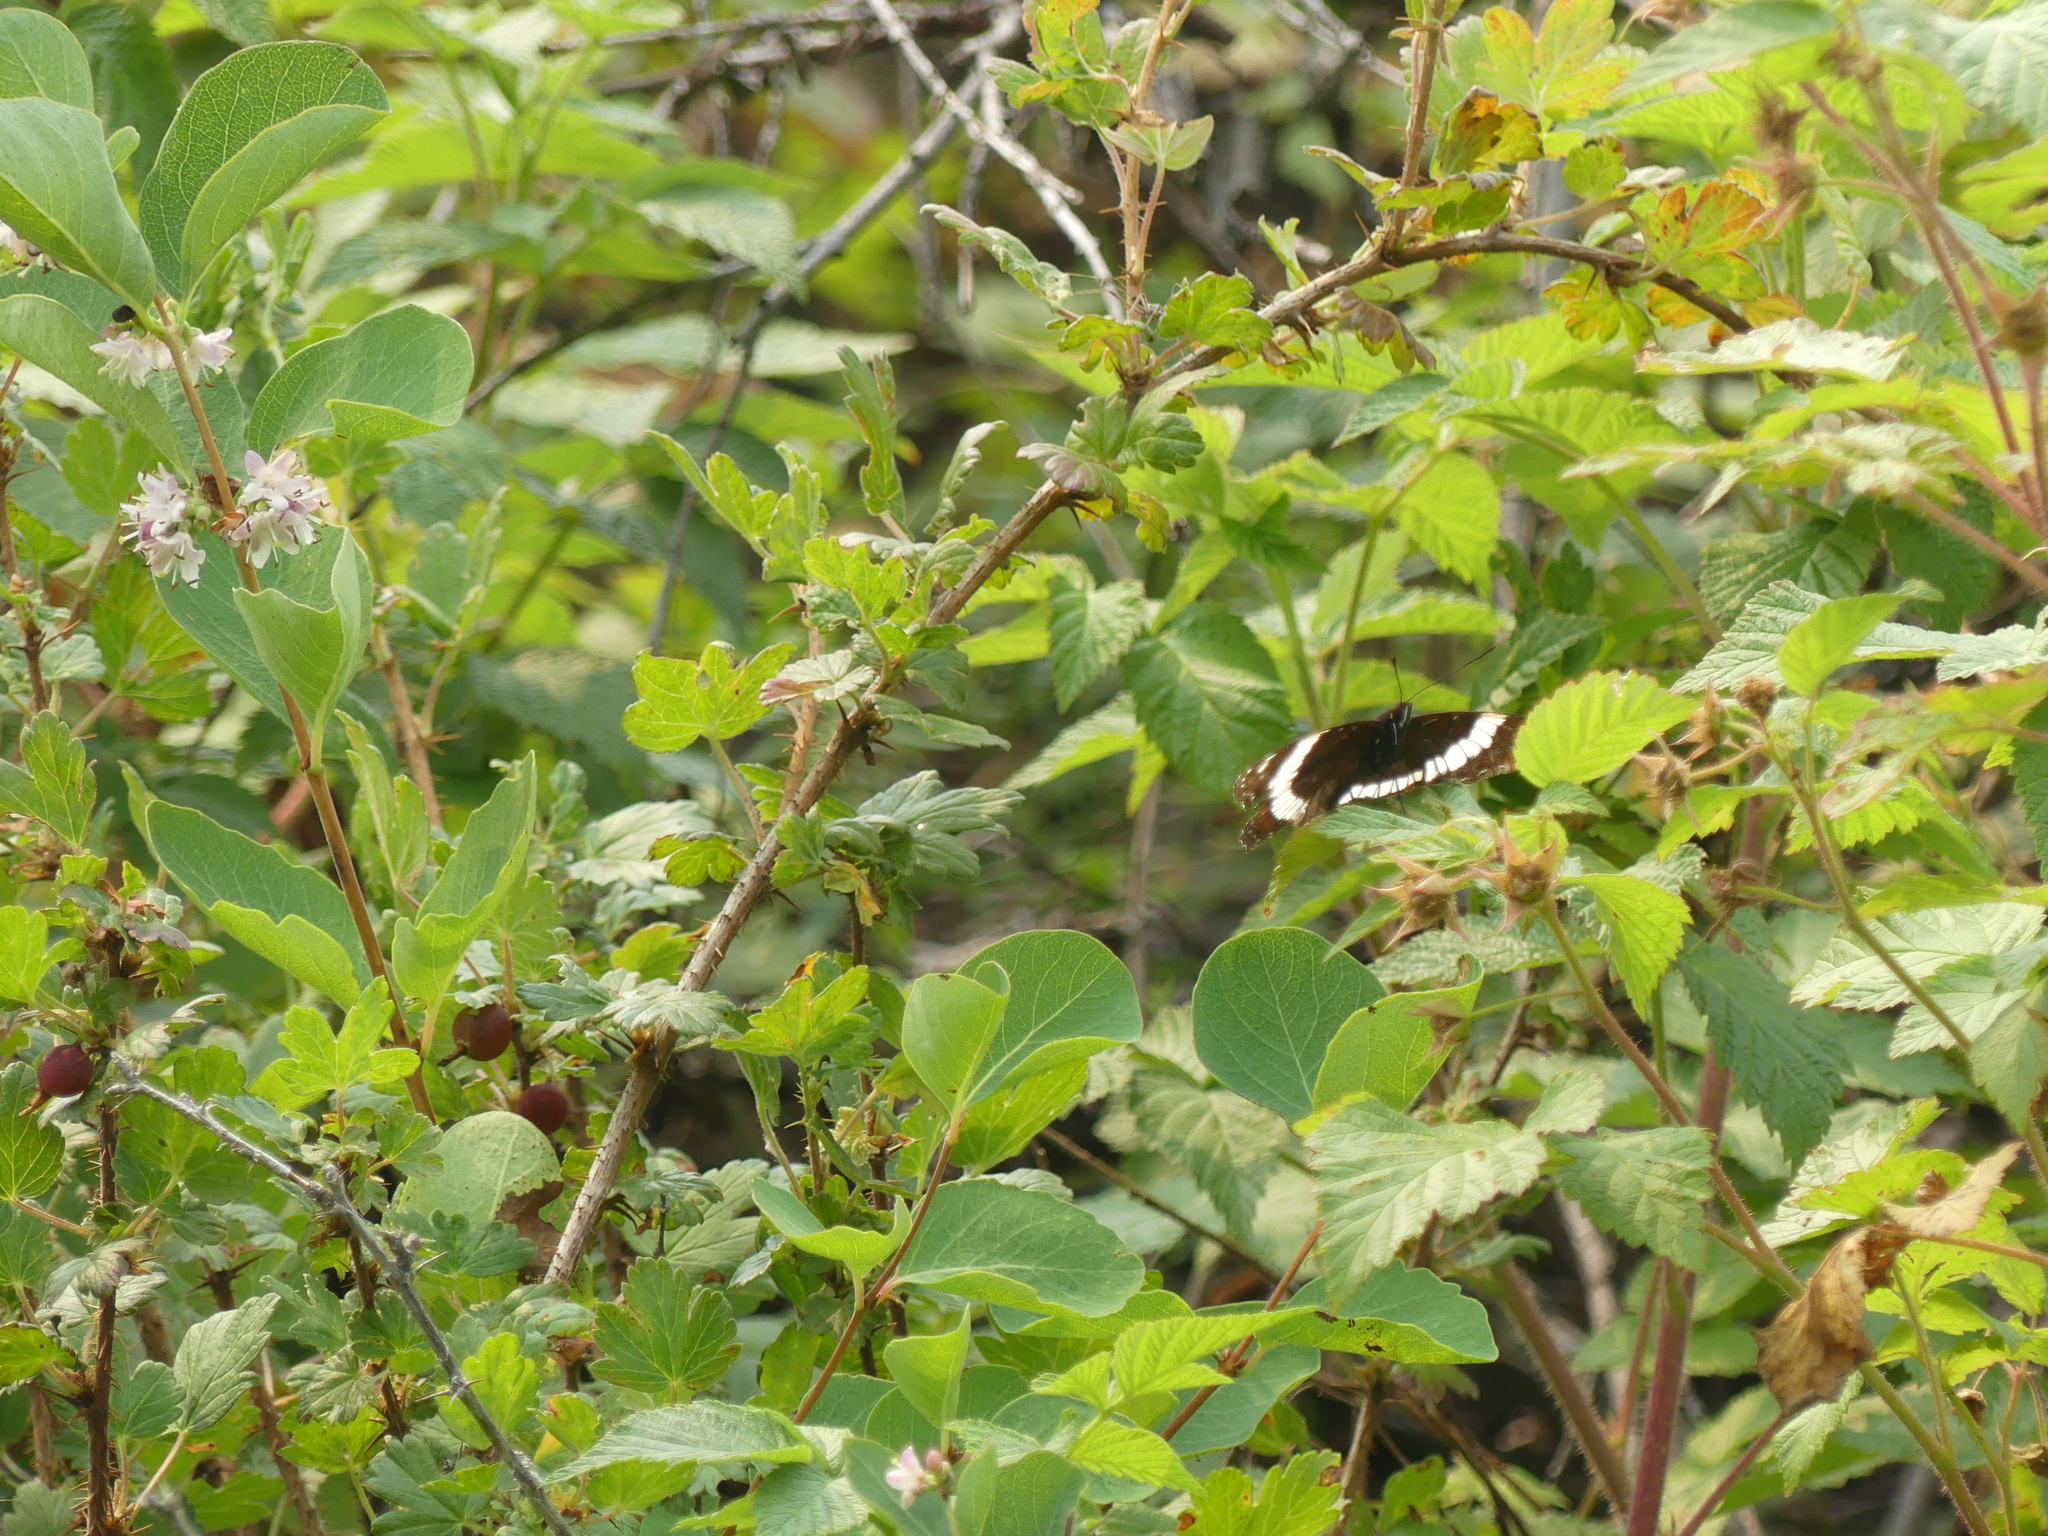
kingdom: Animalia
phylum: Arthropoda
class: Insecta
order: Lepidoptera
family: Nymphalidae
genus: Limenitis
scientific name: Limenitis arthemis
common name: Red-spotted admiral
